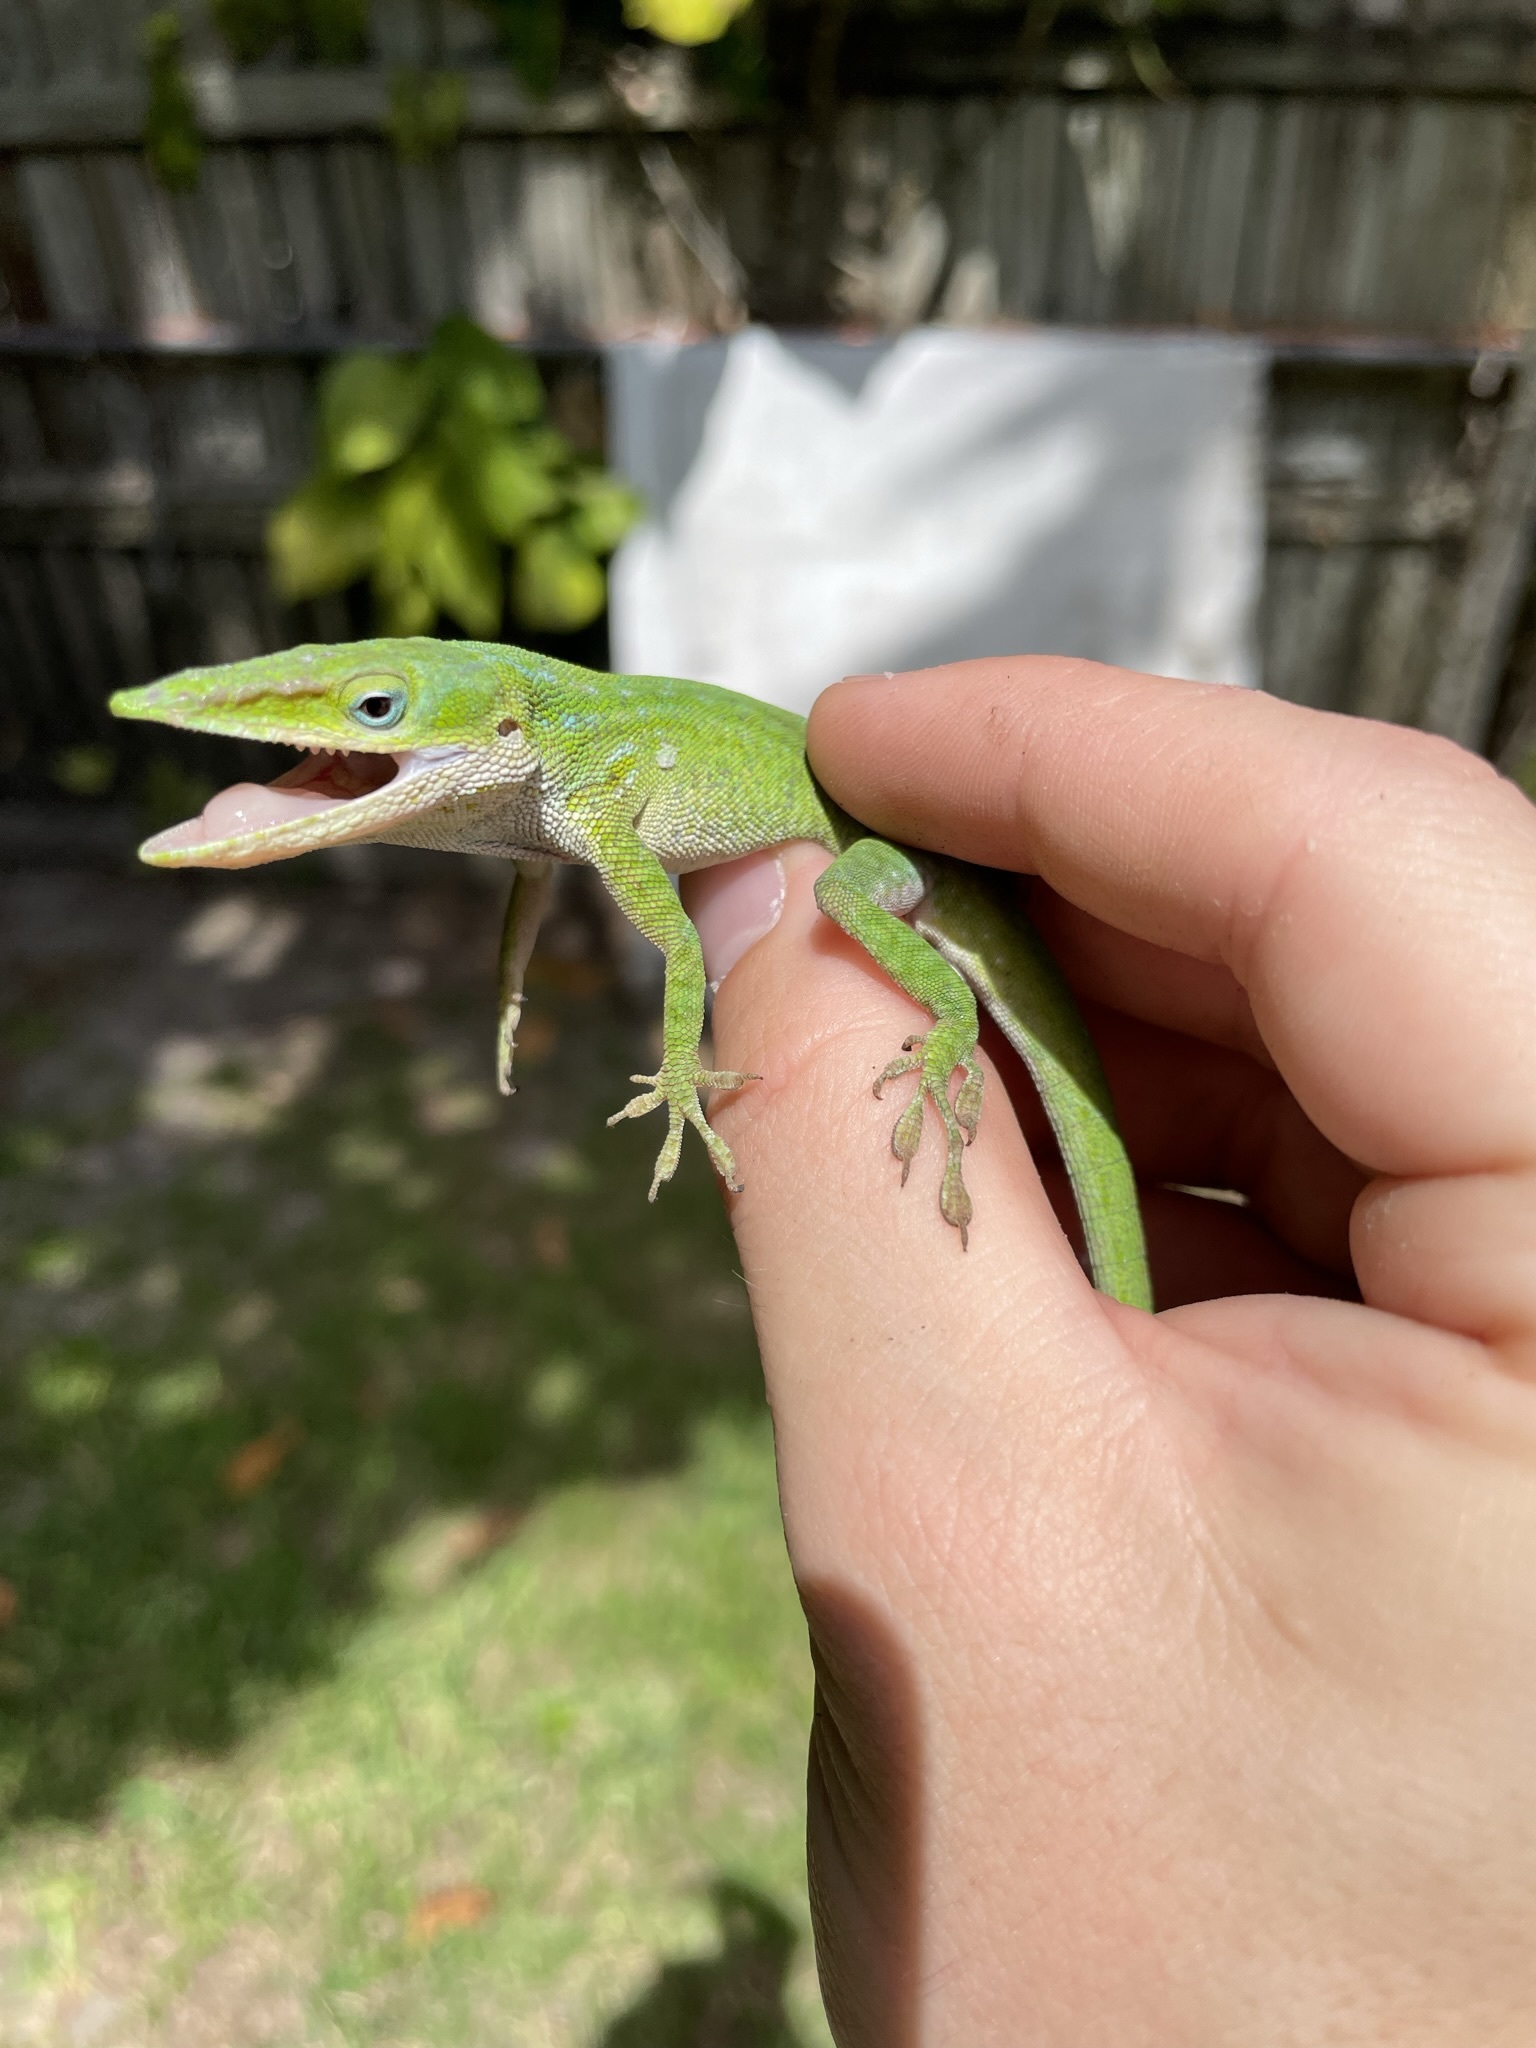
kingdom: Animalia
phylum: Chordata
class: Squamata
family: Dactyloidae
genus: Anolis
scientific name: Anolis carolinensis
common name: Green anole
